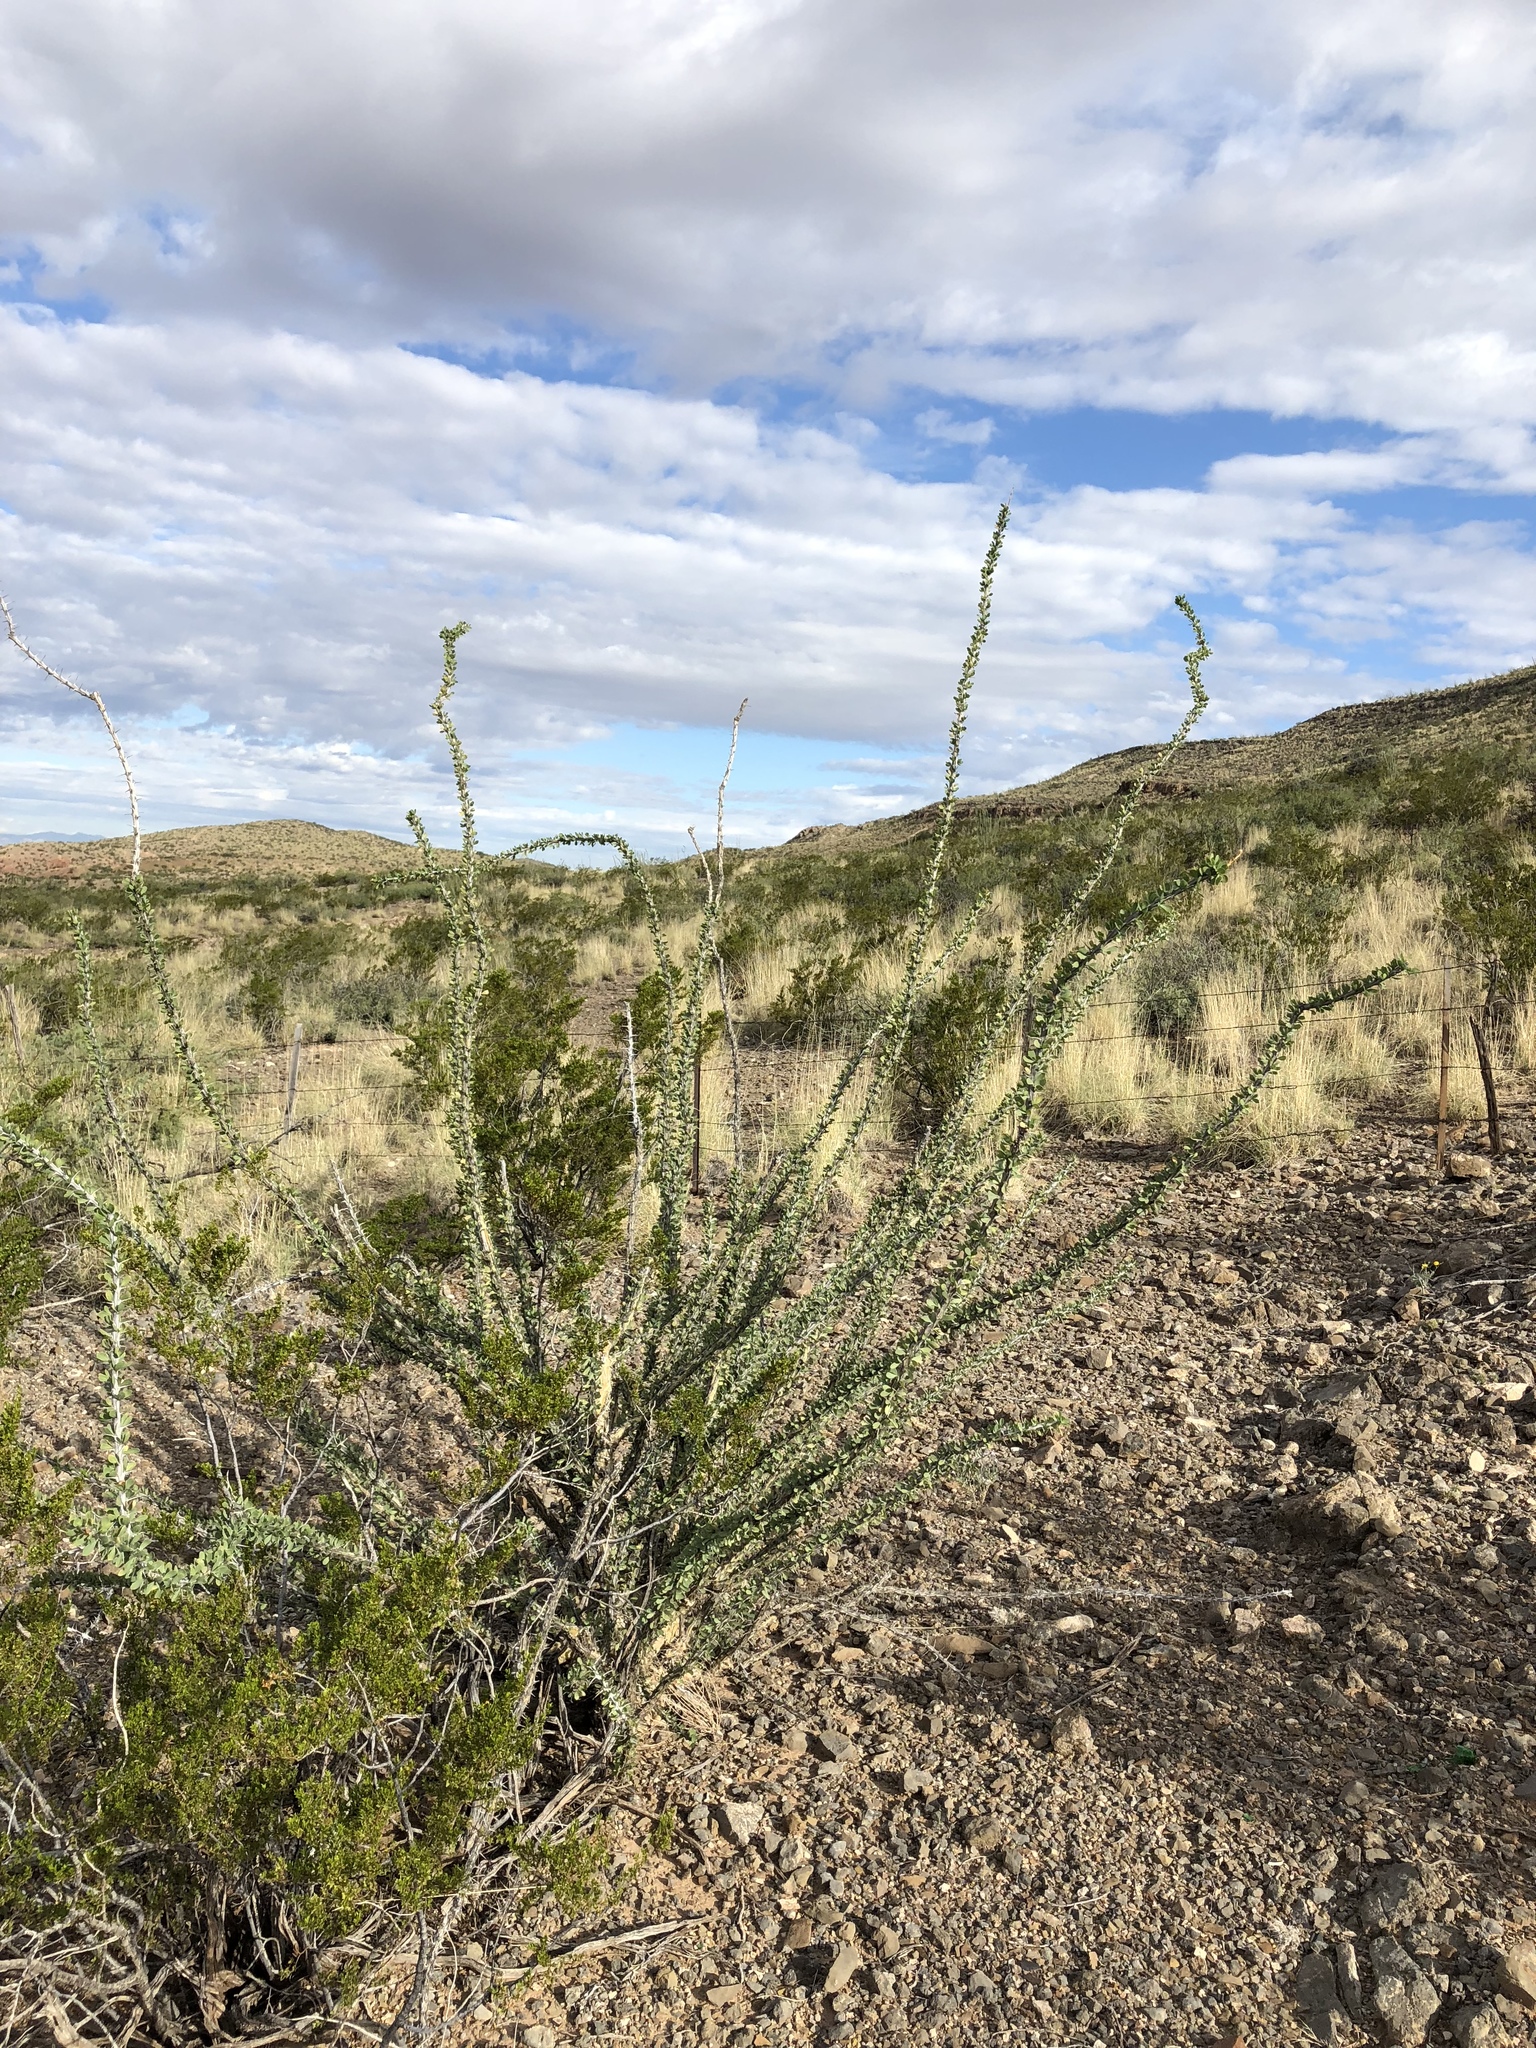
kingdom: Plantae
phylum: Tracheophyta
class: Magnoliopsida
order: Ericales
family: Fouquieriaceae
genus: Fouquieria
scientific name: Fouquieria splendens
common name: Vine-cactus
